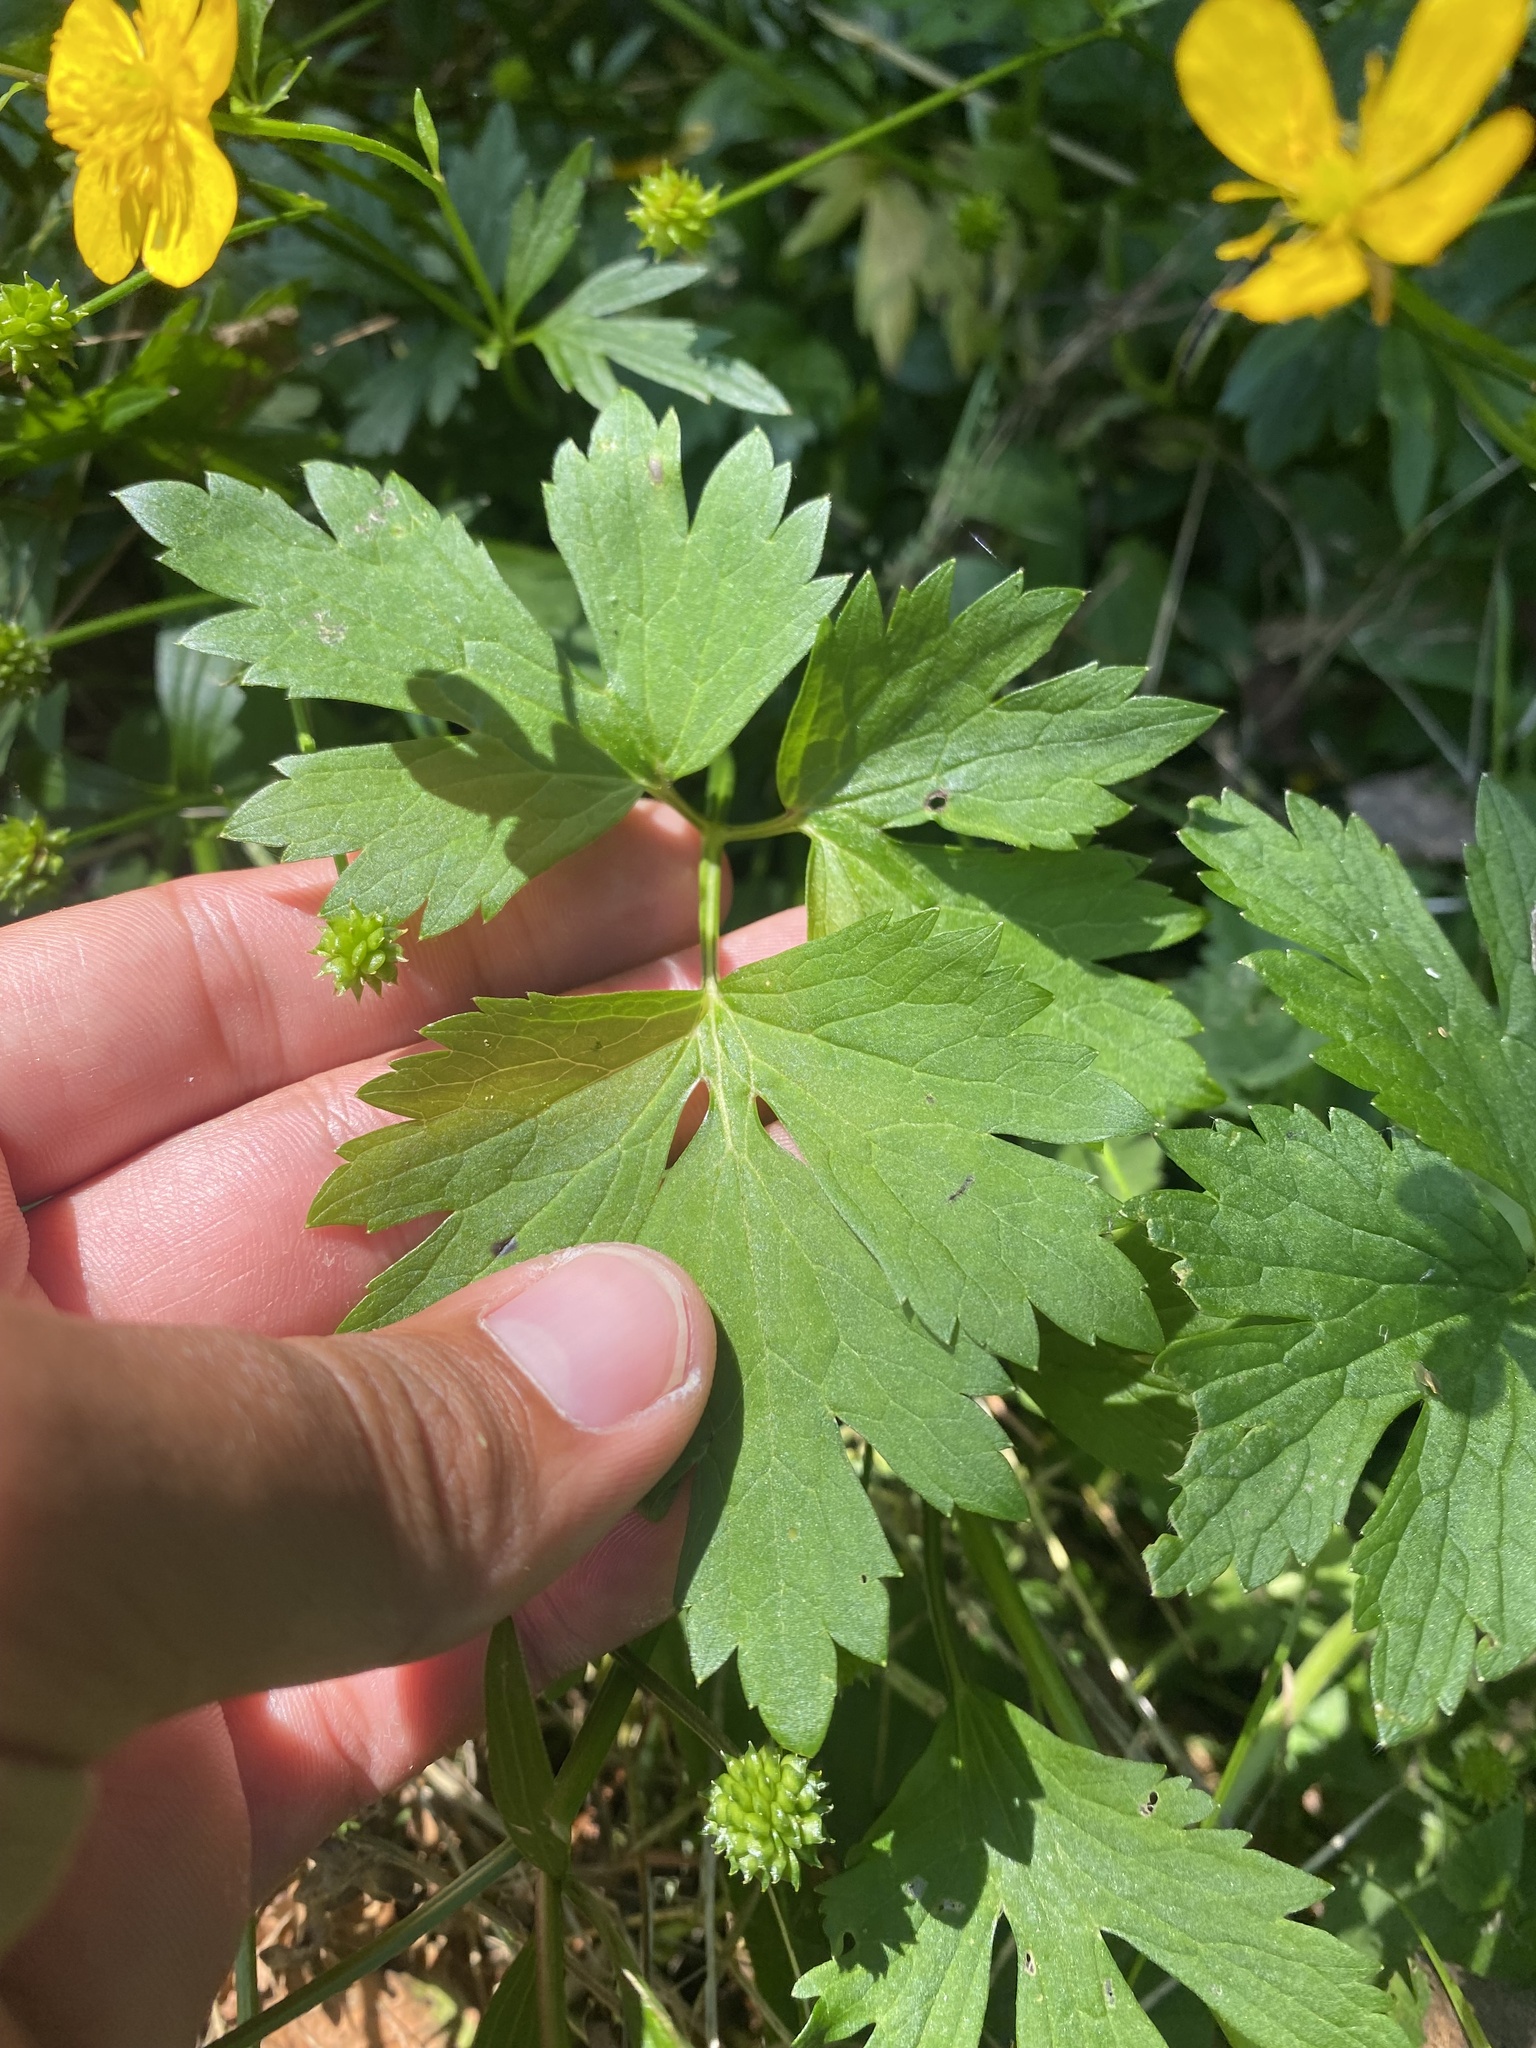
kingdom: Plantae
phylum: Tracheophyta
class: Magnoliopsida
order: Ranunculales
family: Ranunculaceae
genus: Ranunculus
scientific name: Ranunculus repens
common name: Creeping buttercup
